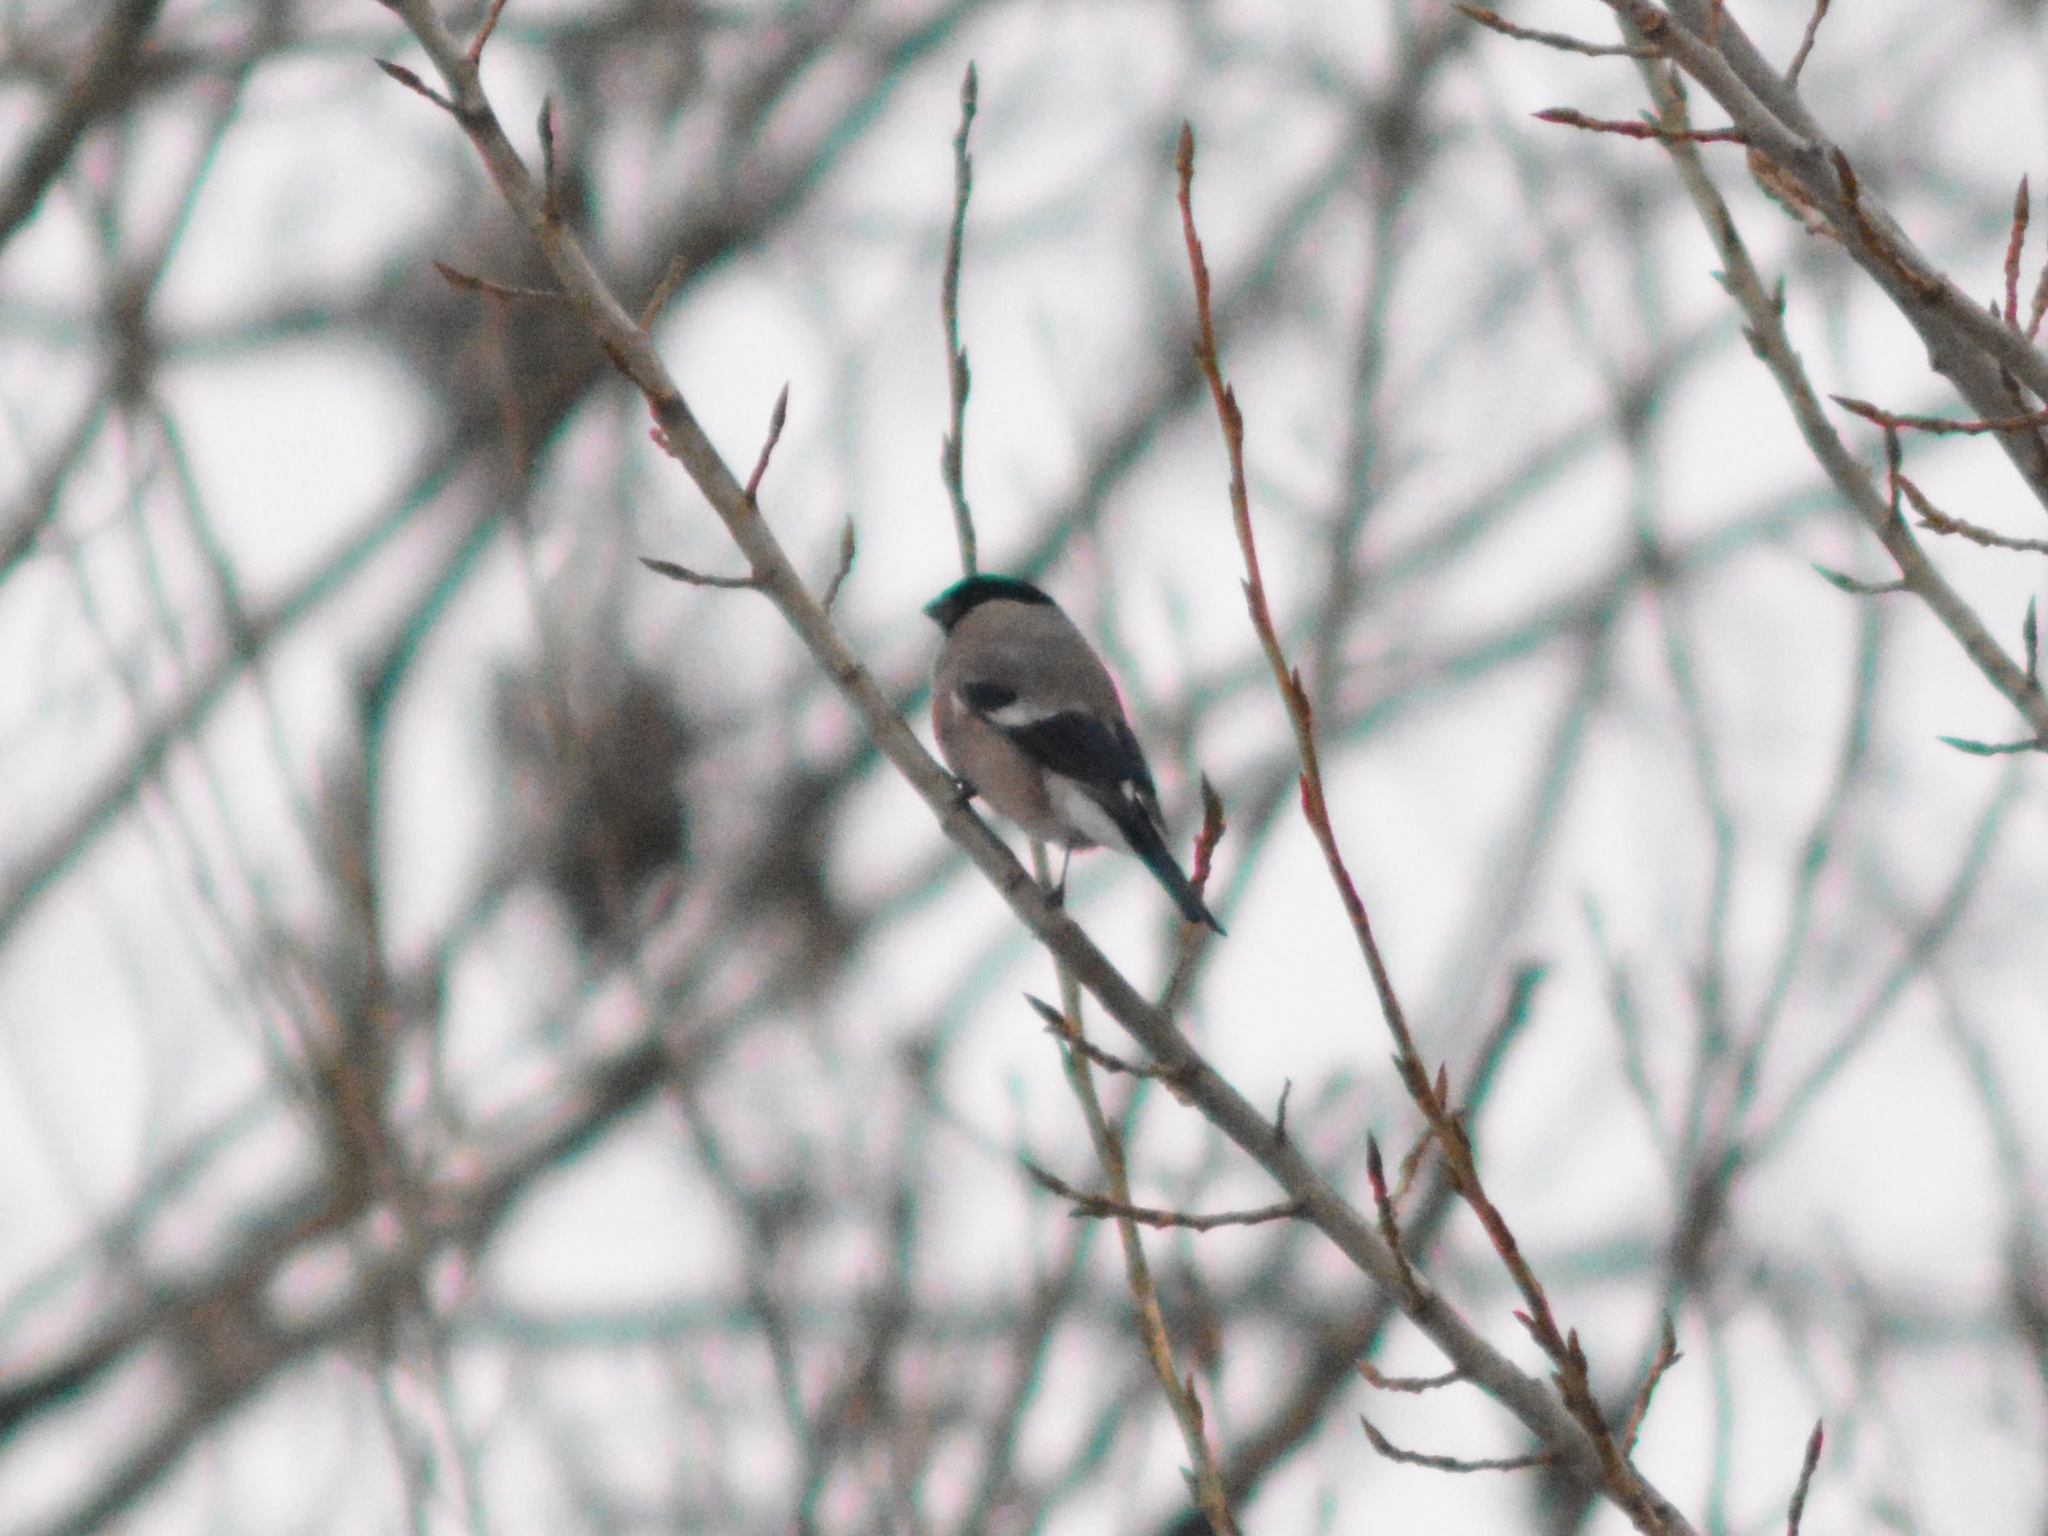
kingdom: Animalia
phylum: Chordata
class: Aves
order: Passeriformes
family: Fringillidae
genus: Pyrrhula
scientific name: Pyrrhula pyrrhula
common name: Eurasian bullfinch
